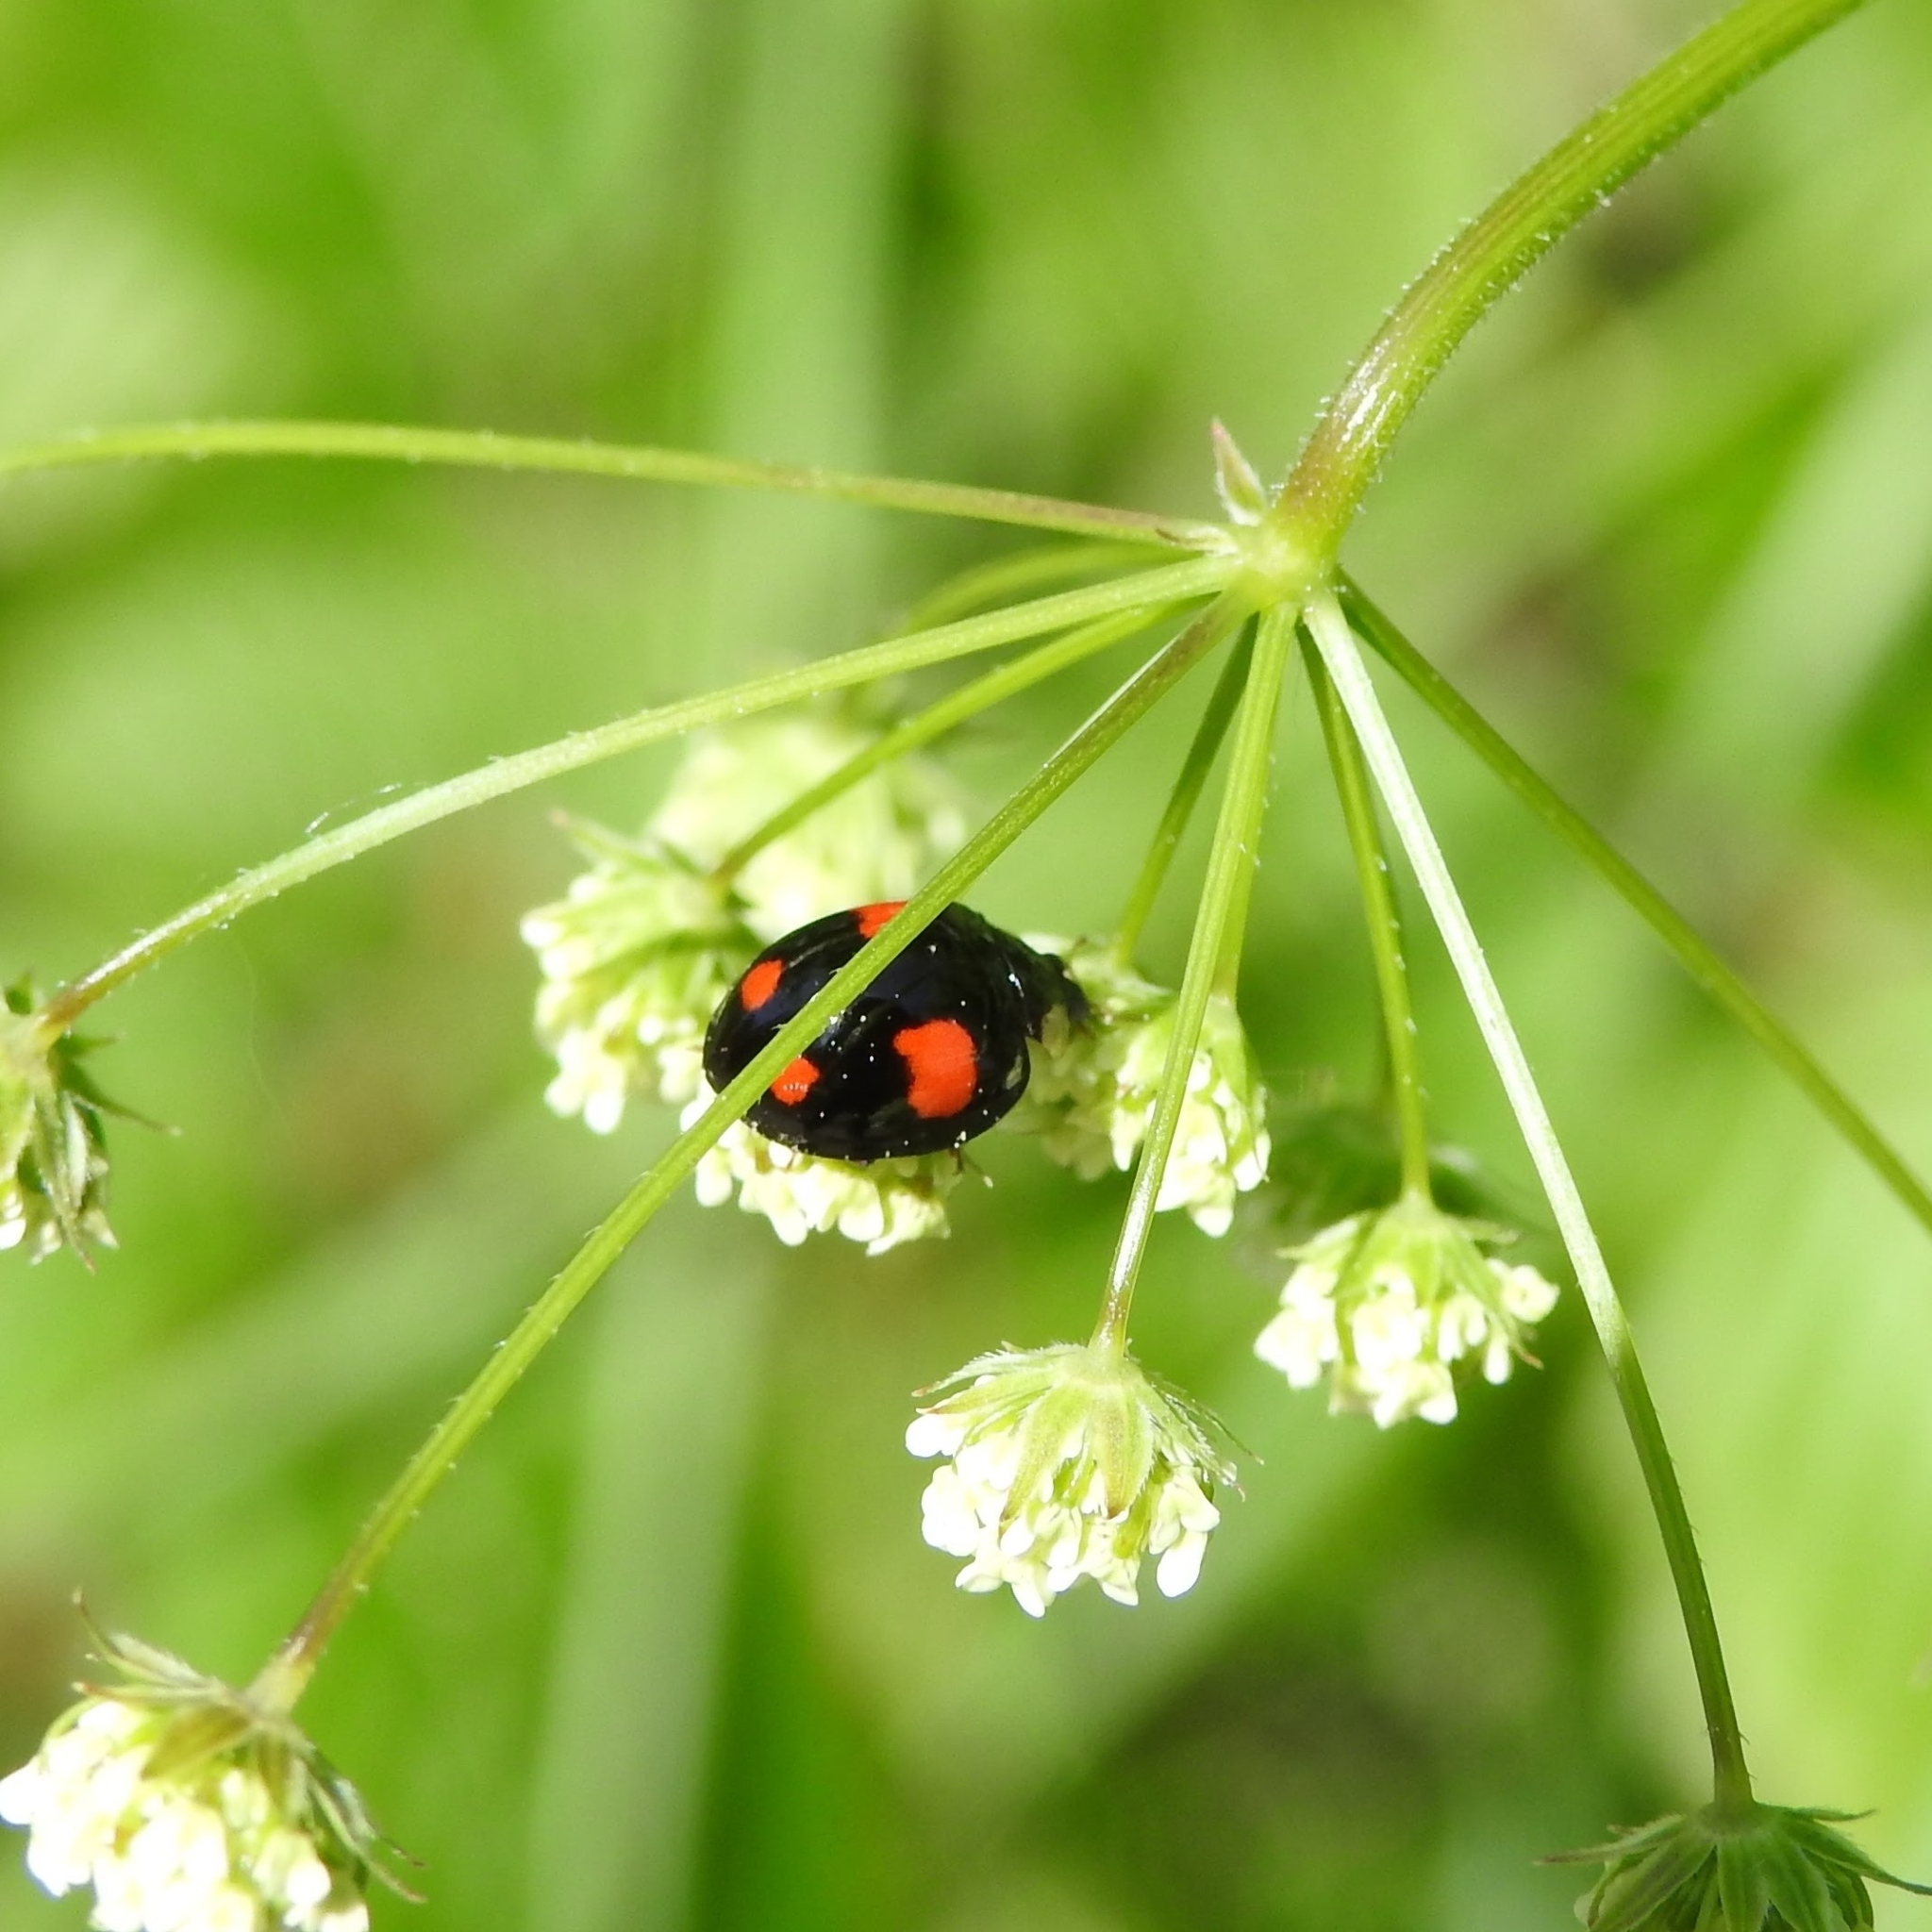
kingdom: Animalia
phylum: Arthropoda
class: Insecta
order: Coleoptera
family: Coccinellidae
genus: Harmonia
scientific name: Harmonia axyridis
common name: Harlequin ladybird
